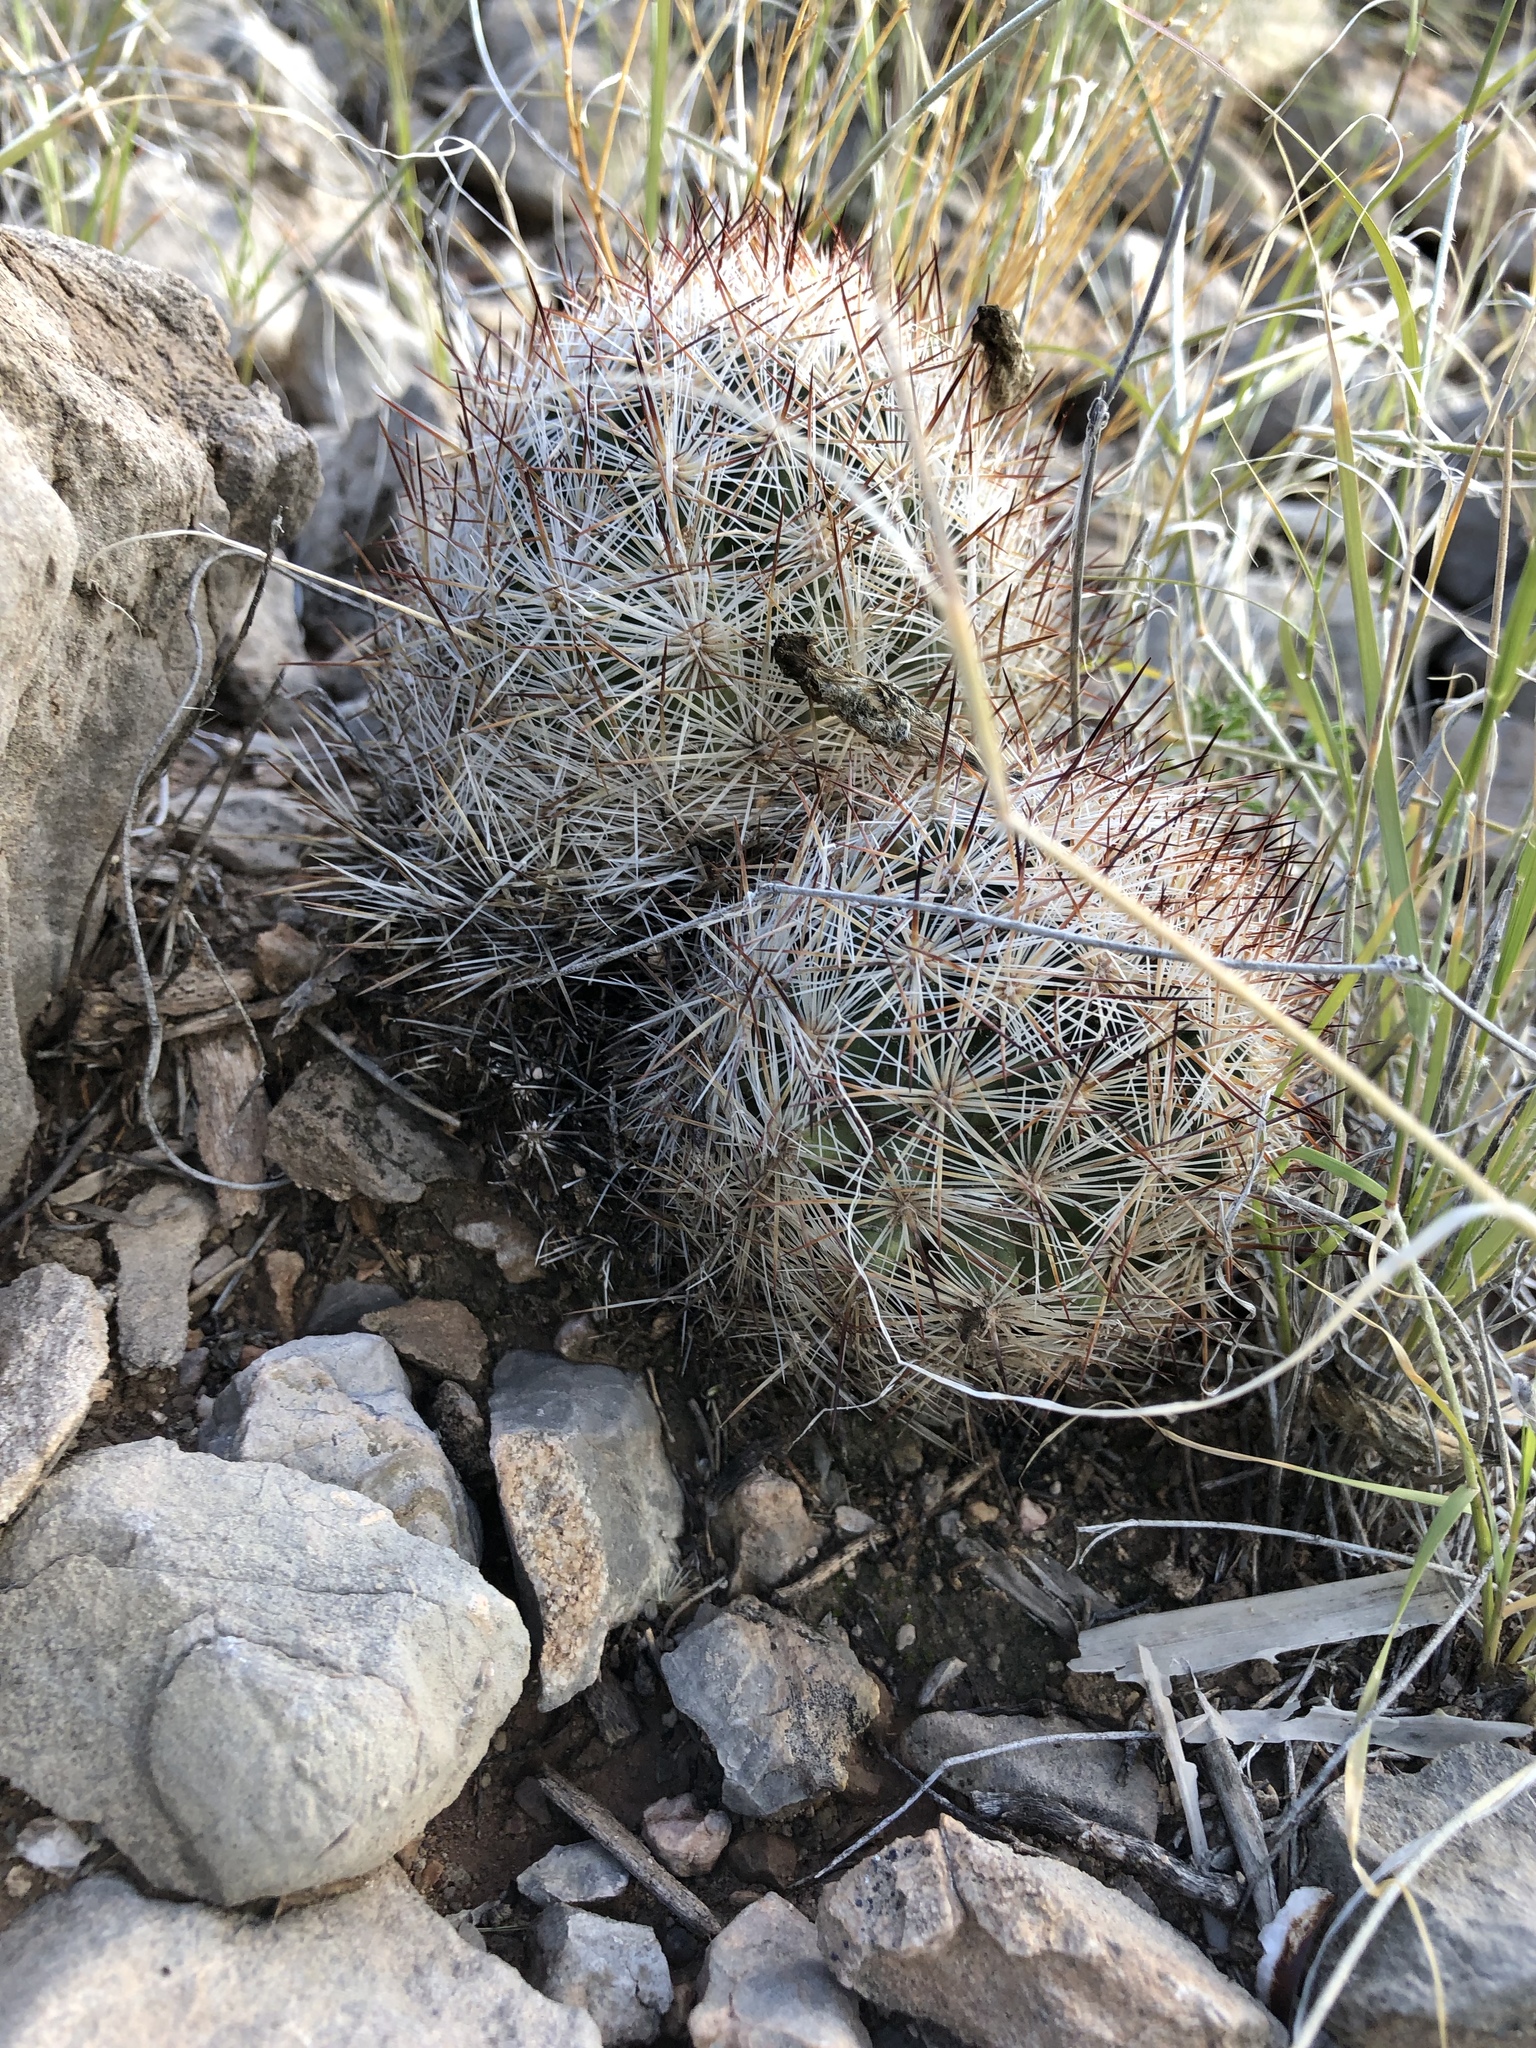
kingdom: Plantae
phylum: Tracheophyta
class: Magnoliopsida
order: Caryophyllales
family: Cactaceae
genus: Pelecyphora
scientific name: Pelecyphora vivipara
